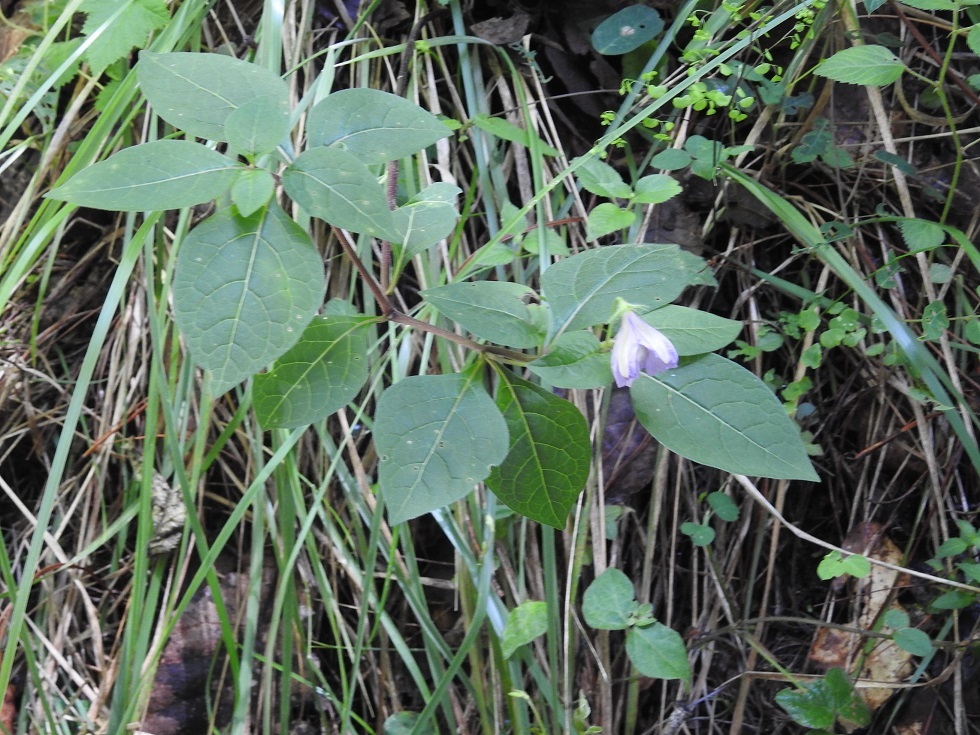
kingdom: Plantae
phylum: Tracheophyta
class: Magnoliopsida
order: Solanales
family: Solanaceae
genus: Lycianthes
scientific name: Lycianthes ciliolata
